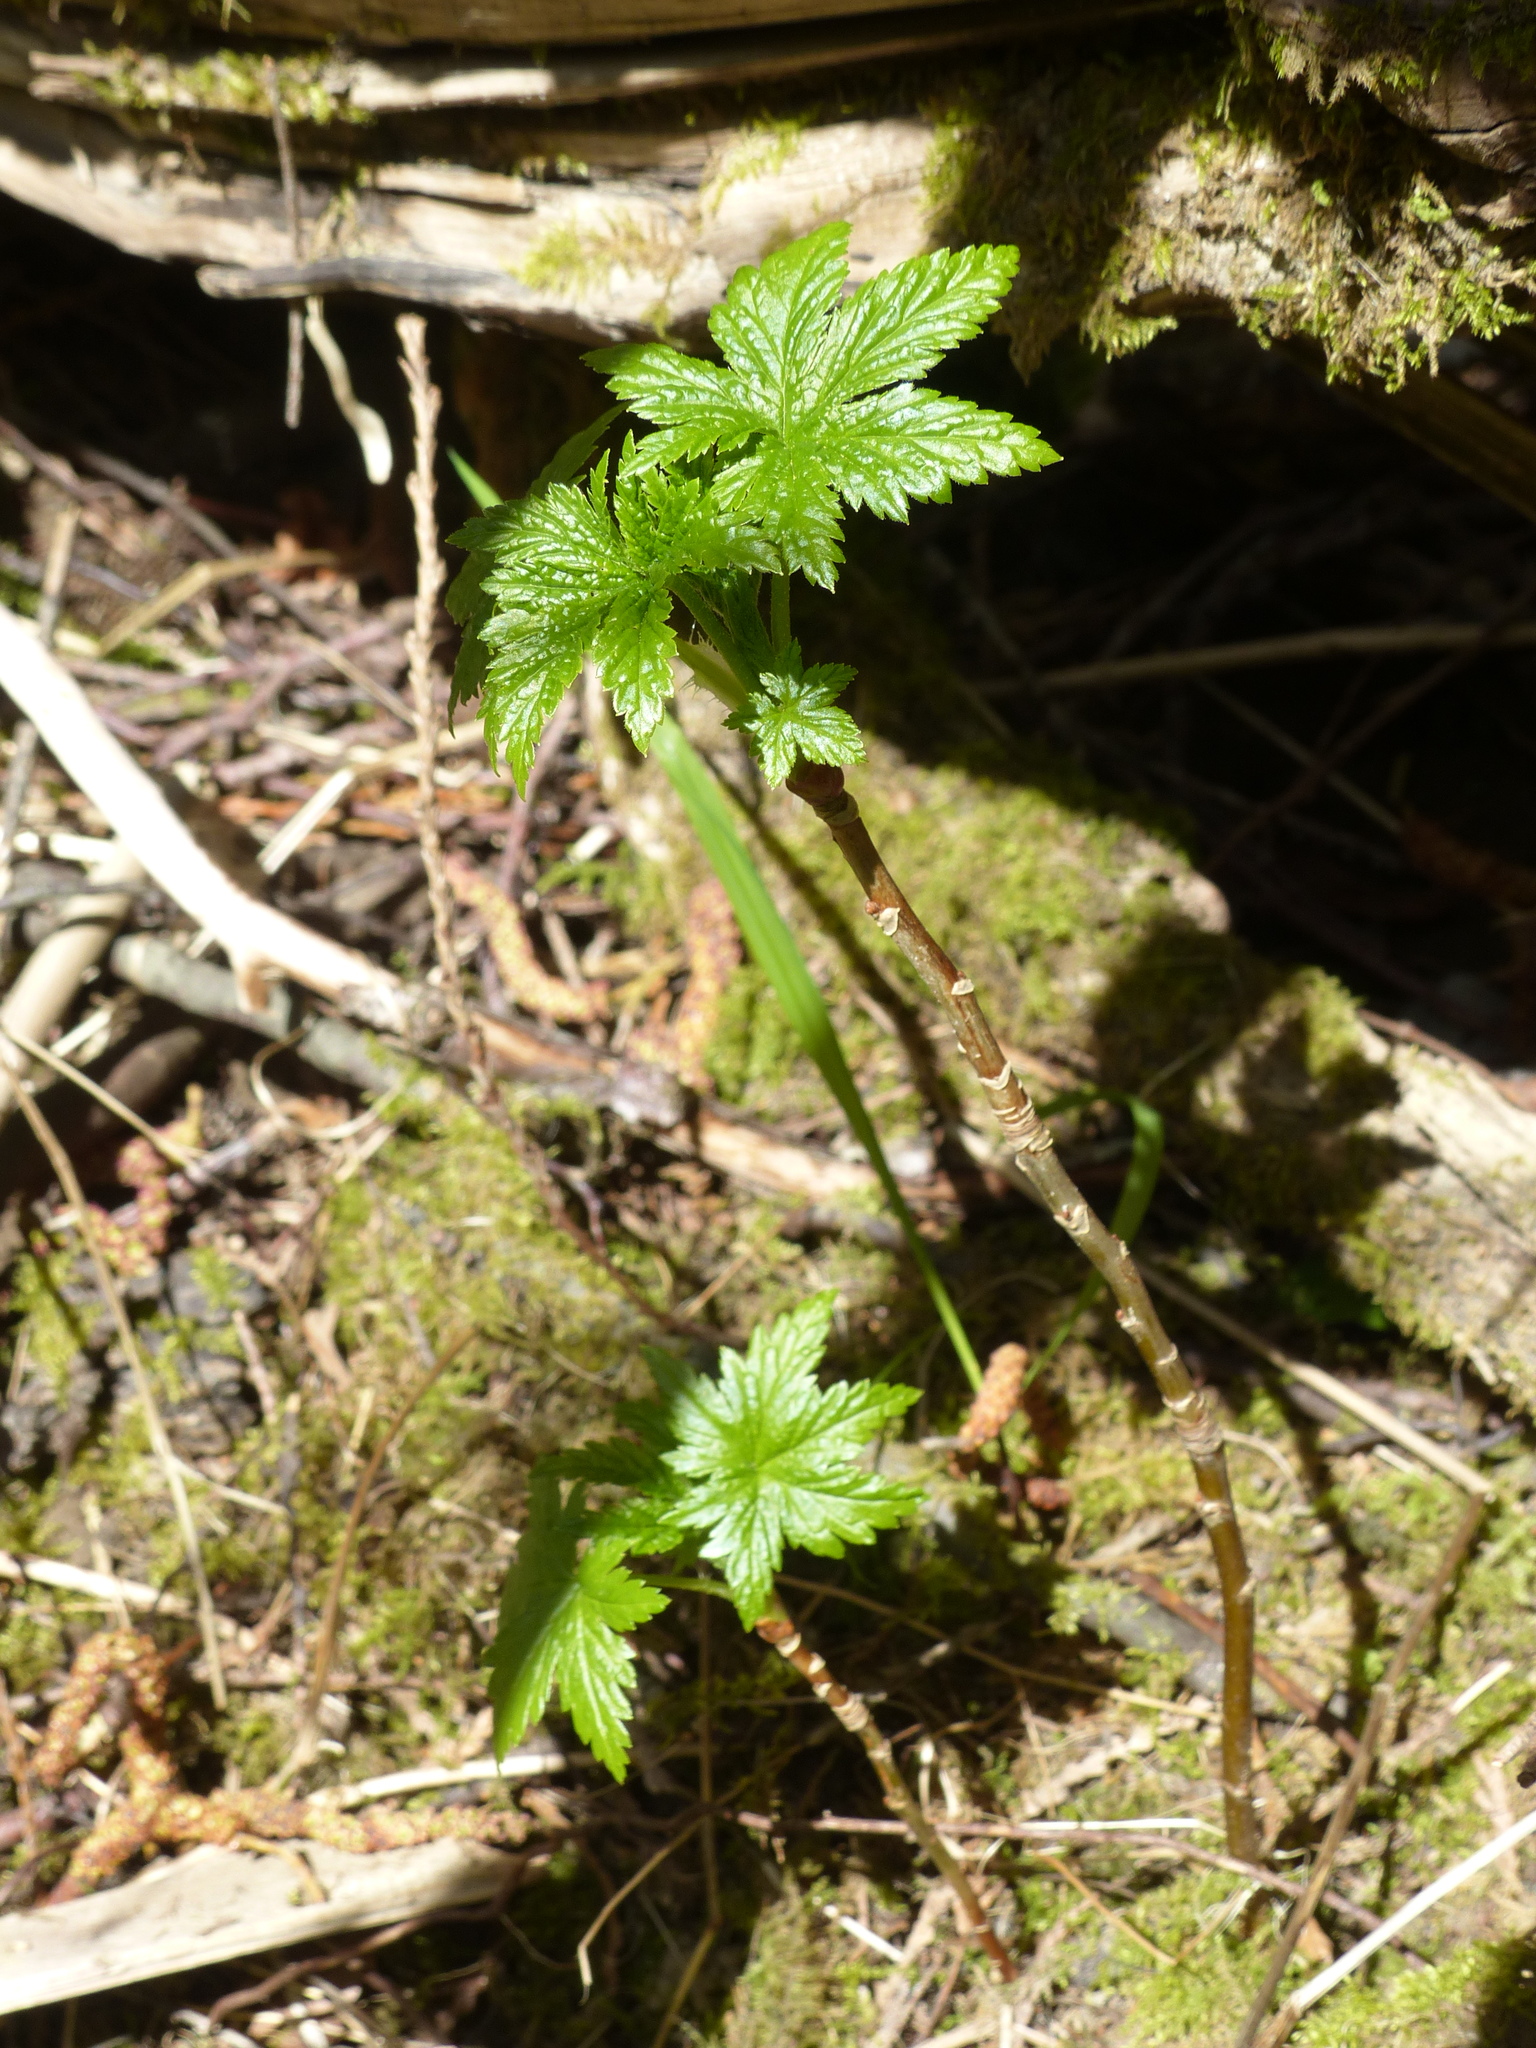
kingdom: Plantae
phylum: Tracheophyta
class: Magnoliopsida
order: Saxifragales
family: Grossulariaceae
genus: Ribes
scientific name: Ribes bracteosum
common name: California black currant
